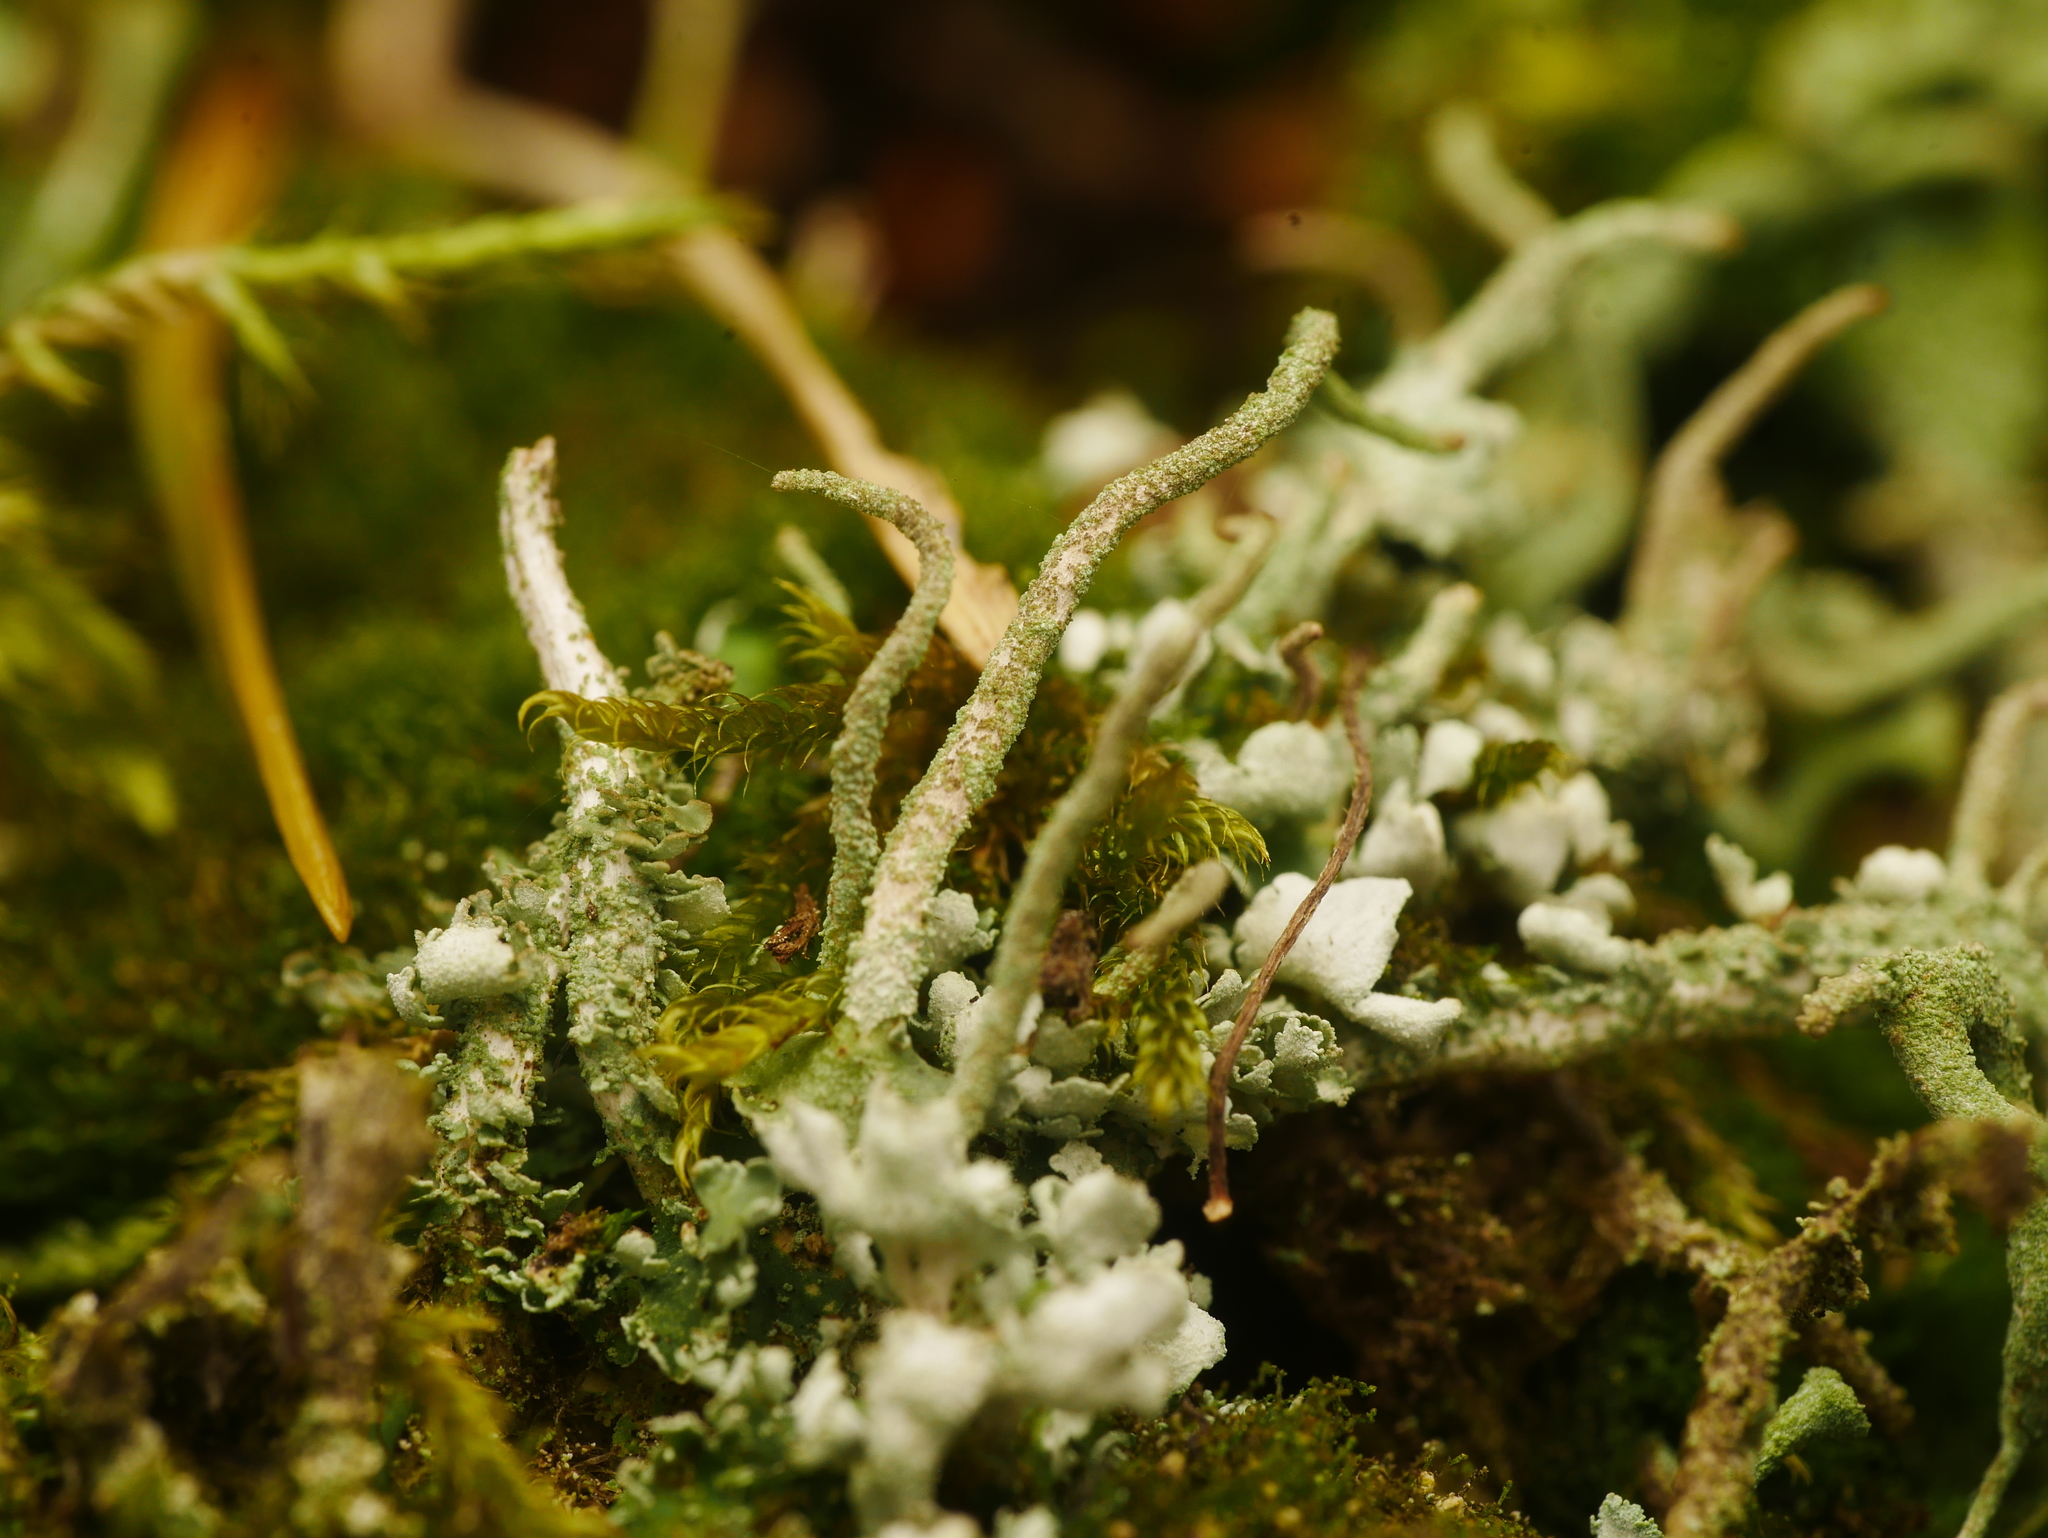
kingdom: Fungi
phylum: Ascomycota
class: Lecanoromycetes
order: Lecanorales
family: Cladoniaceae
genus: Cladonia
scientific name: Cladonia coniocraea
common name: Common powderhorn
